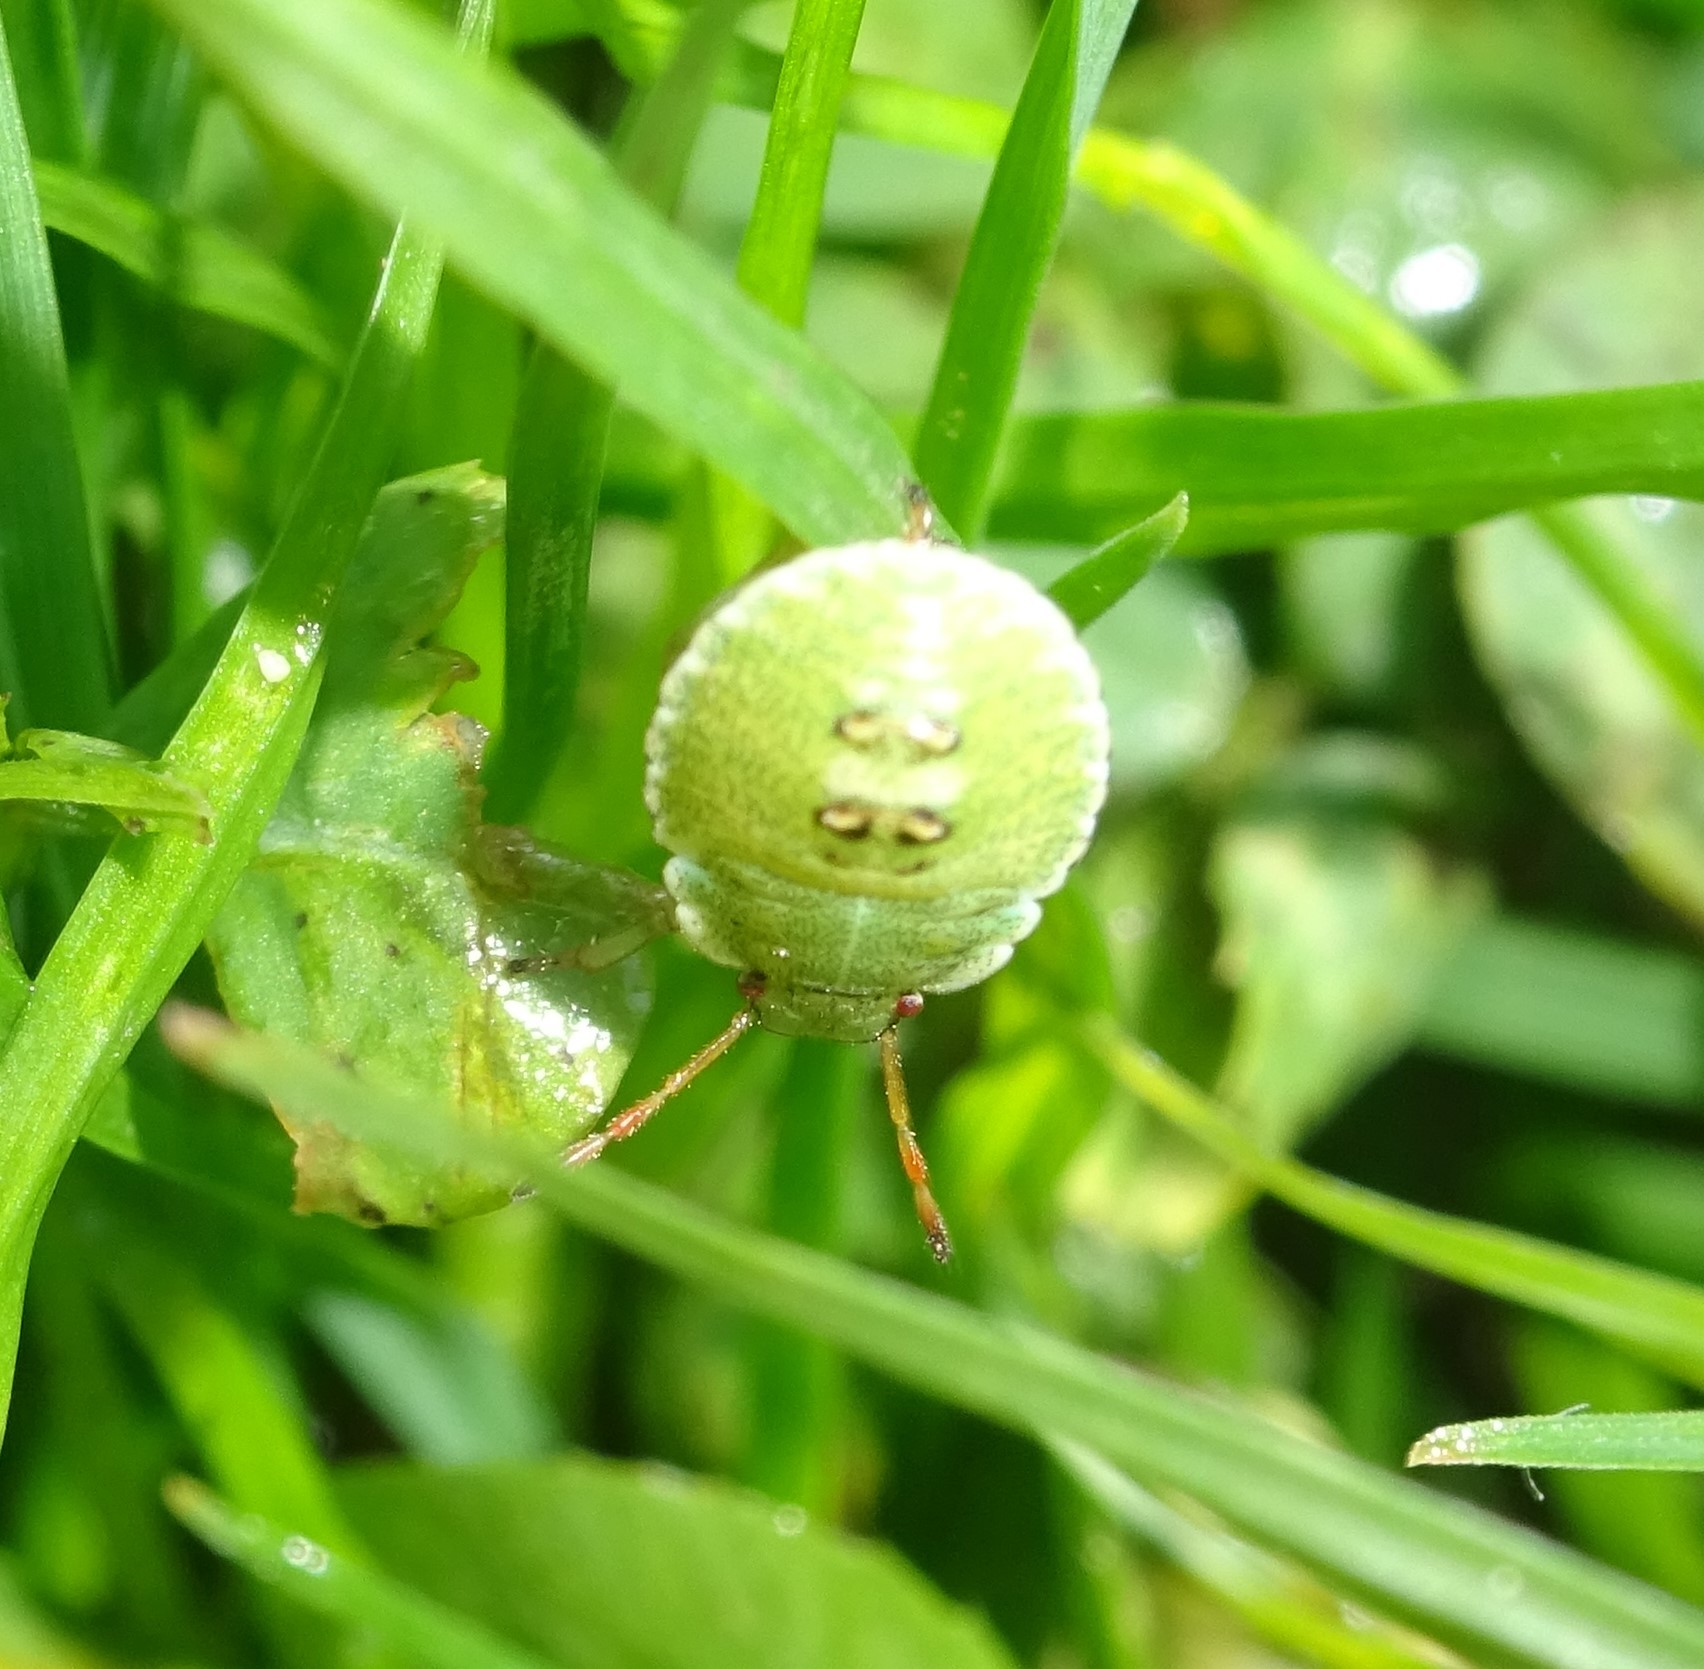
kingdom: Animalia
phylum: Arthropoda
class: Insecta
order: Hemiptera
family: Pentatomidae
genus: Palomena
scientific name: Palomena prasina
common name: Green shieldbug
